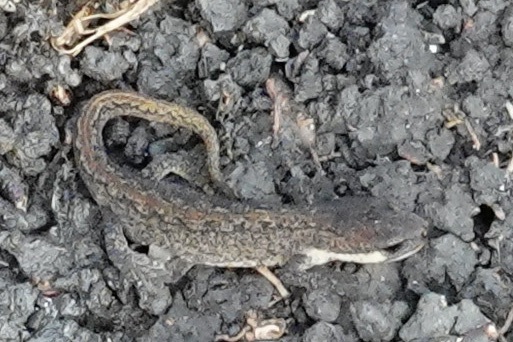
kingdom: Animalia
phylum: Chordata
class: Amphibia
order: Caudata
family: Salamandridae
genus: Lissotriton
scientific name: Lissotriton vulgaris
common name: Smooth newt
